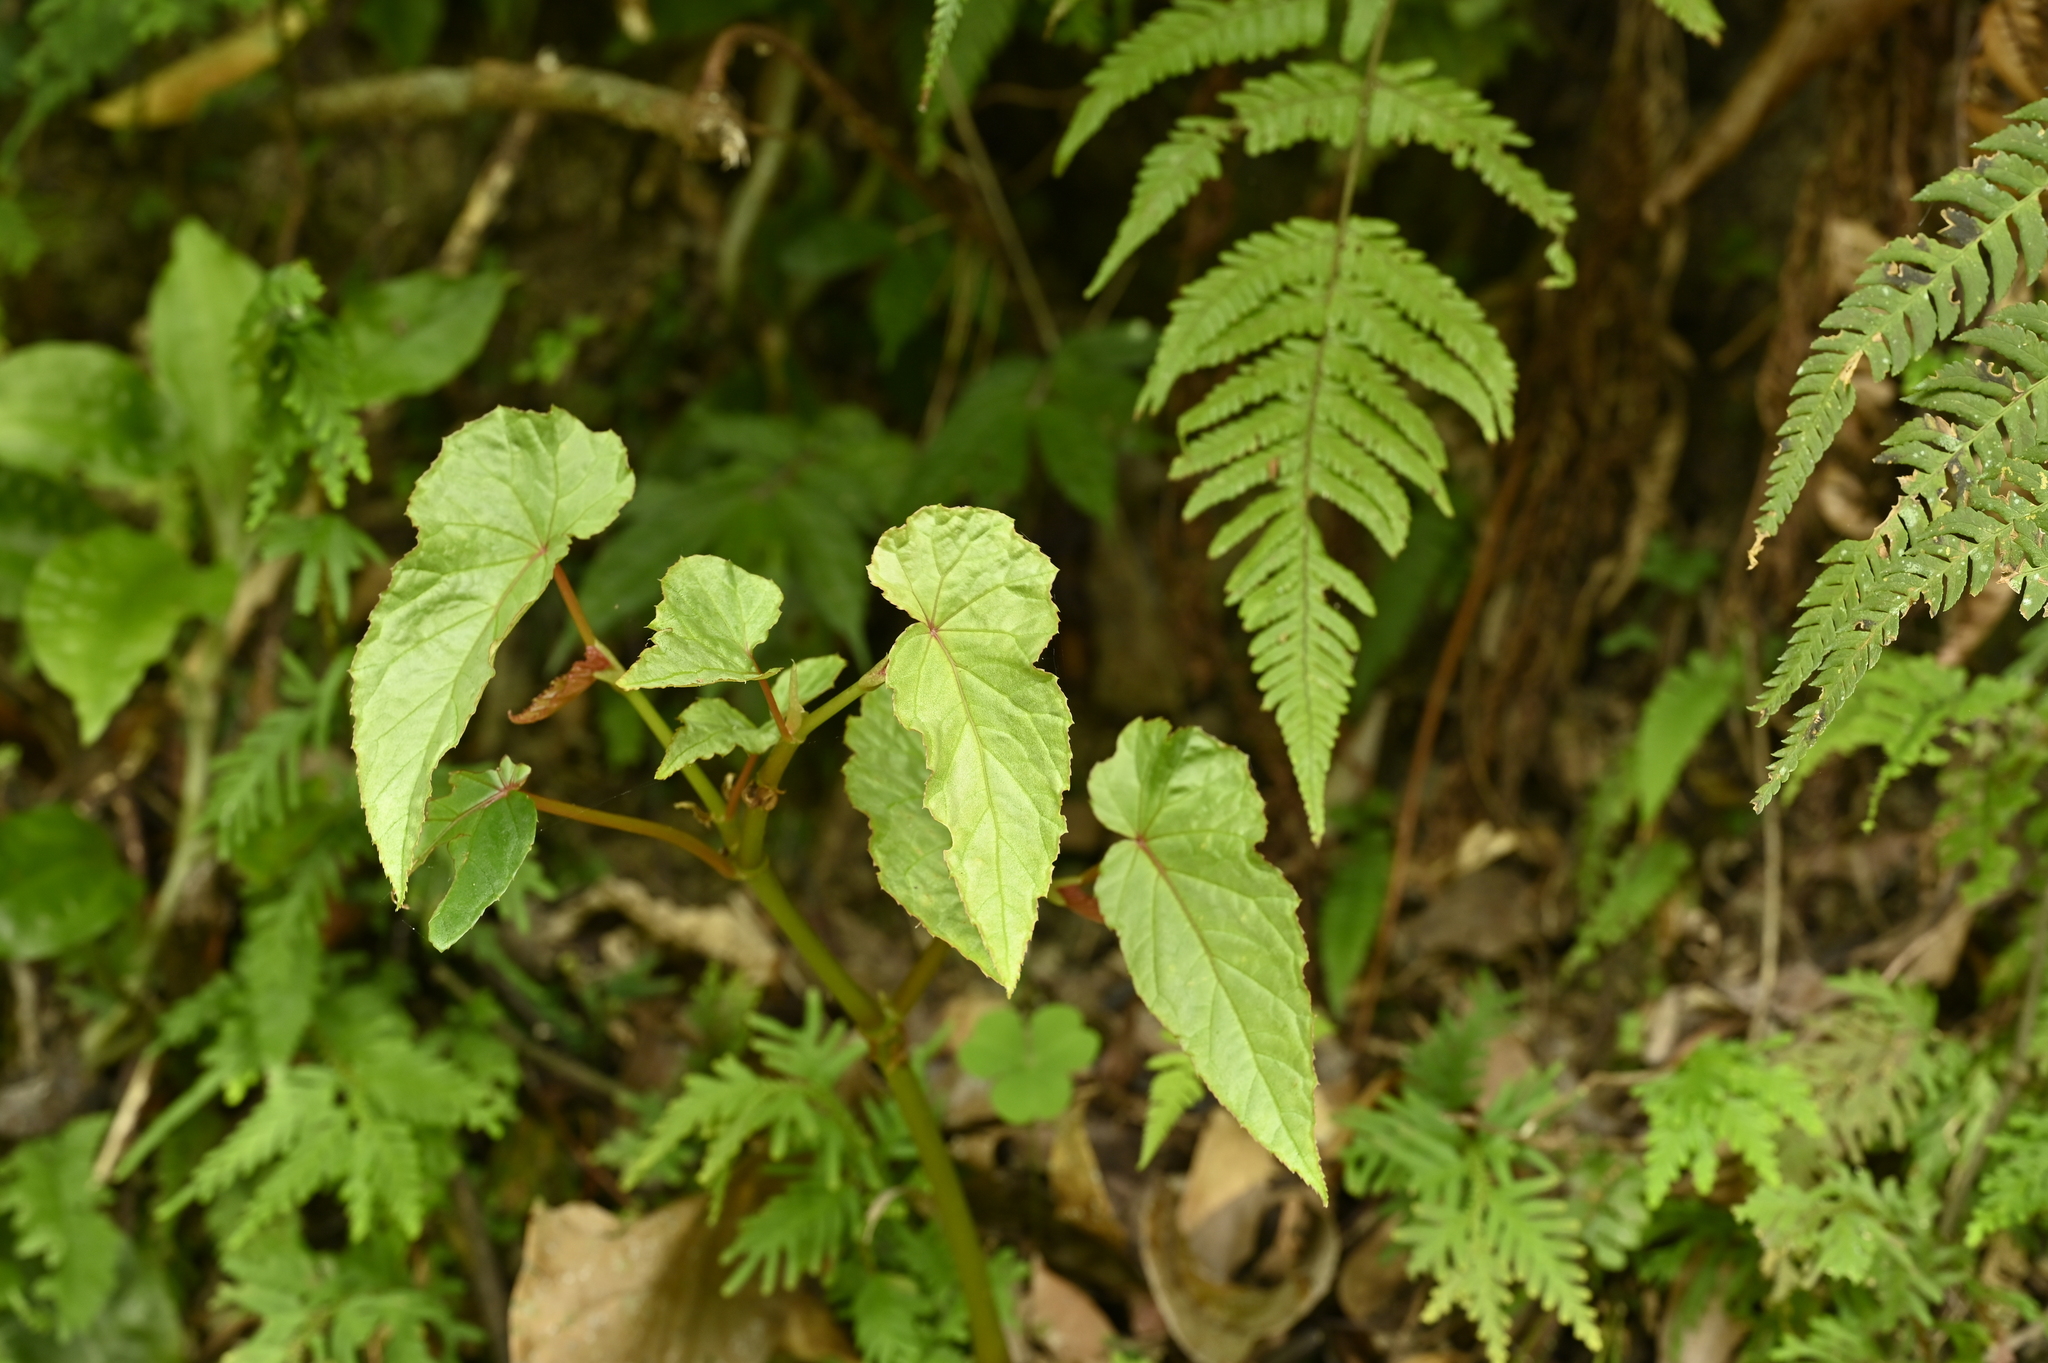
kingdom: Plantae
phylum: Tracheophyta
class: Magnoliopsida
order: Cucurbitales
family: Begoniaceae
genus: Begonia
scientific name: Begonia longifolia
